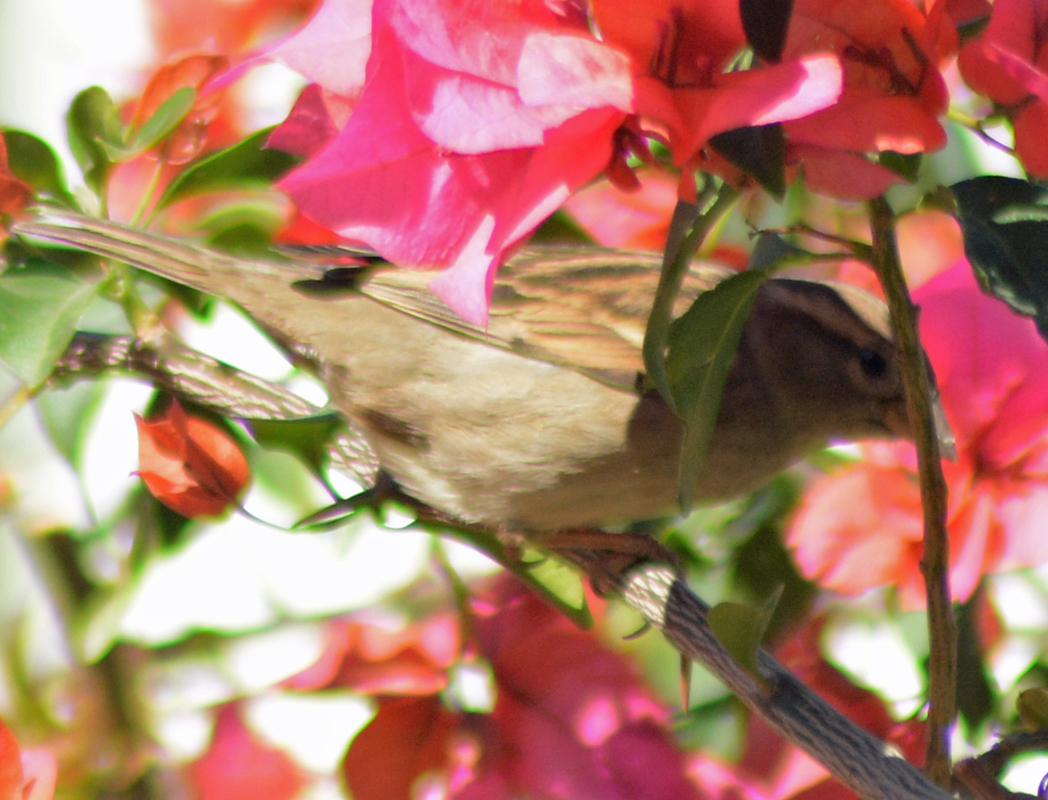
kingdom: Animalia
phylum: Chordata
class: Aves
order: Passeriformes
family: Passeridae
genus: Passer
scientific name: Passer domesticus
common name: House sparrow
